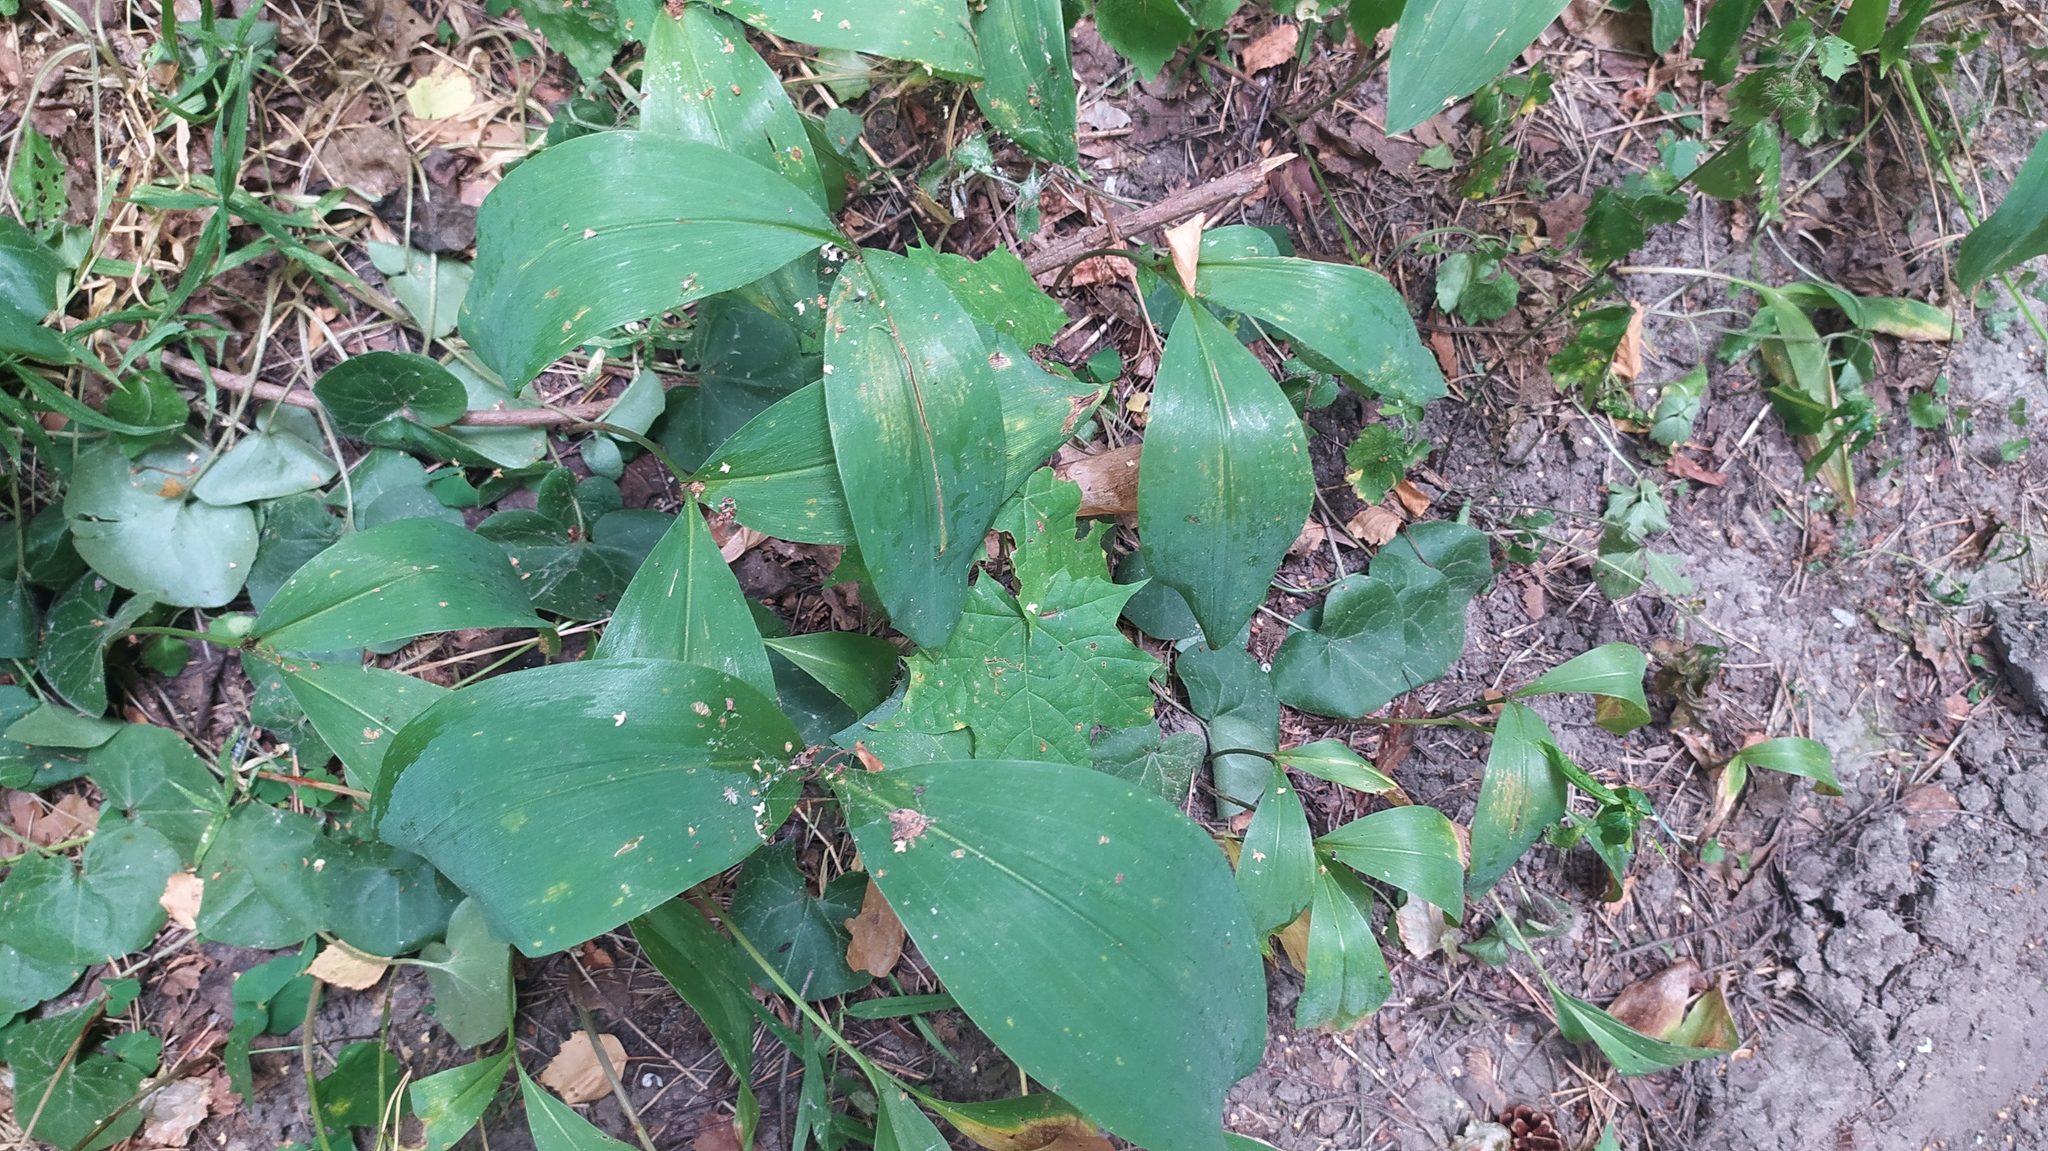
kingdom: Plantae
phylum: Tracheophyta
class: Liliopsida
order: Asparagales
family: Asparagaceae
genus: Convallaria
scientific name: Convallaria majalis
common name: Lily-of-the-valley
